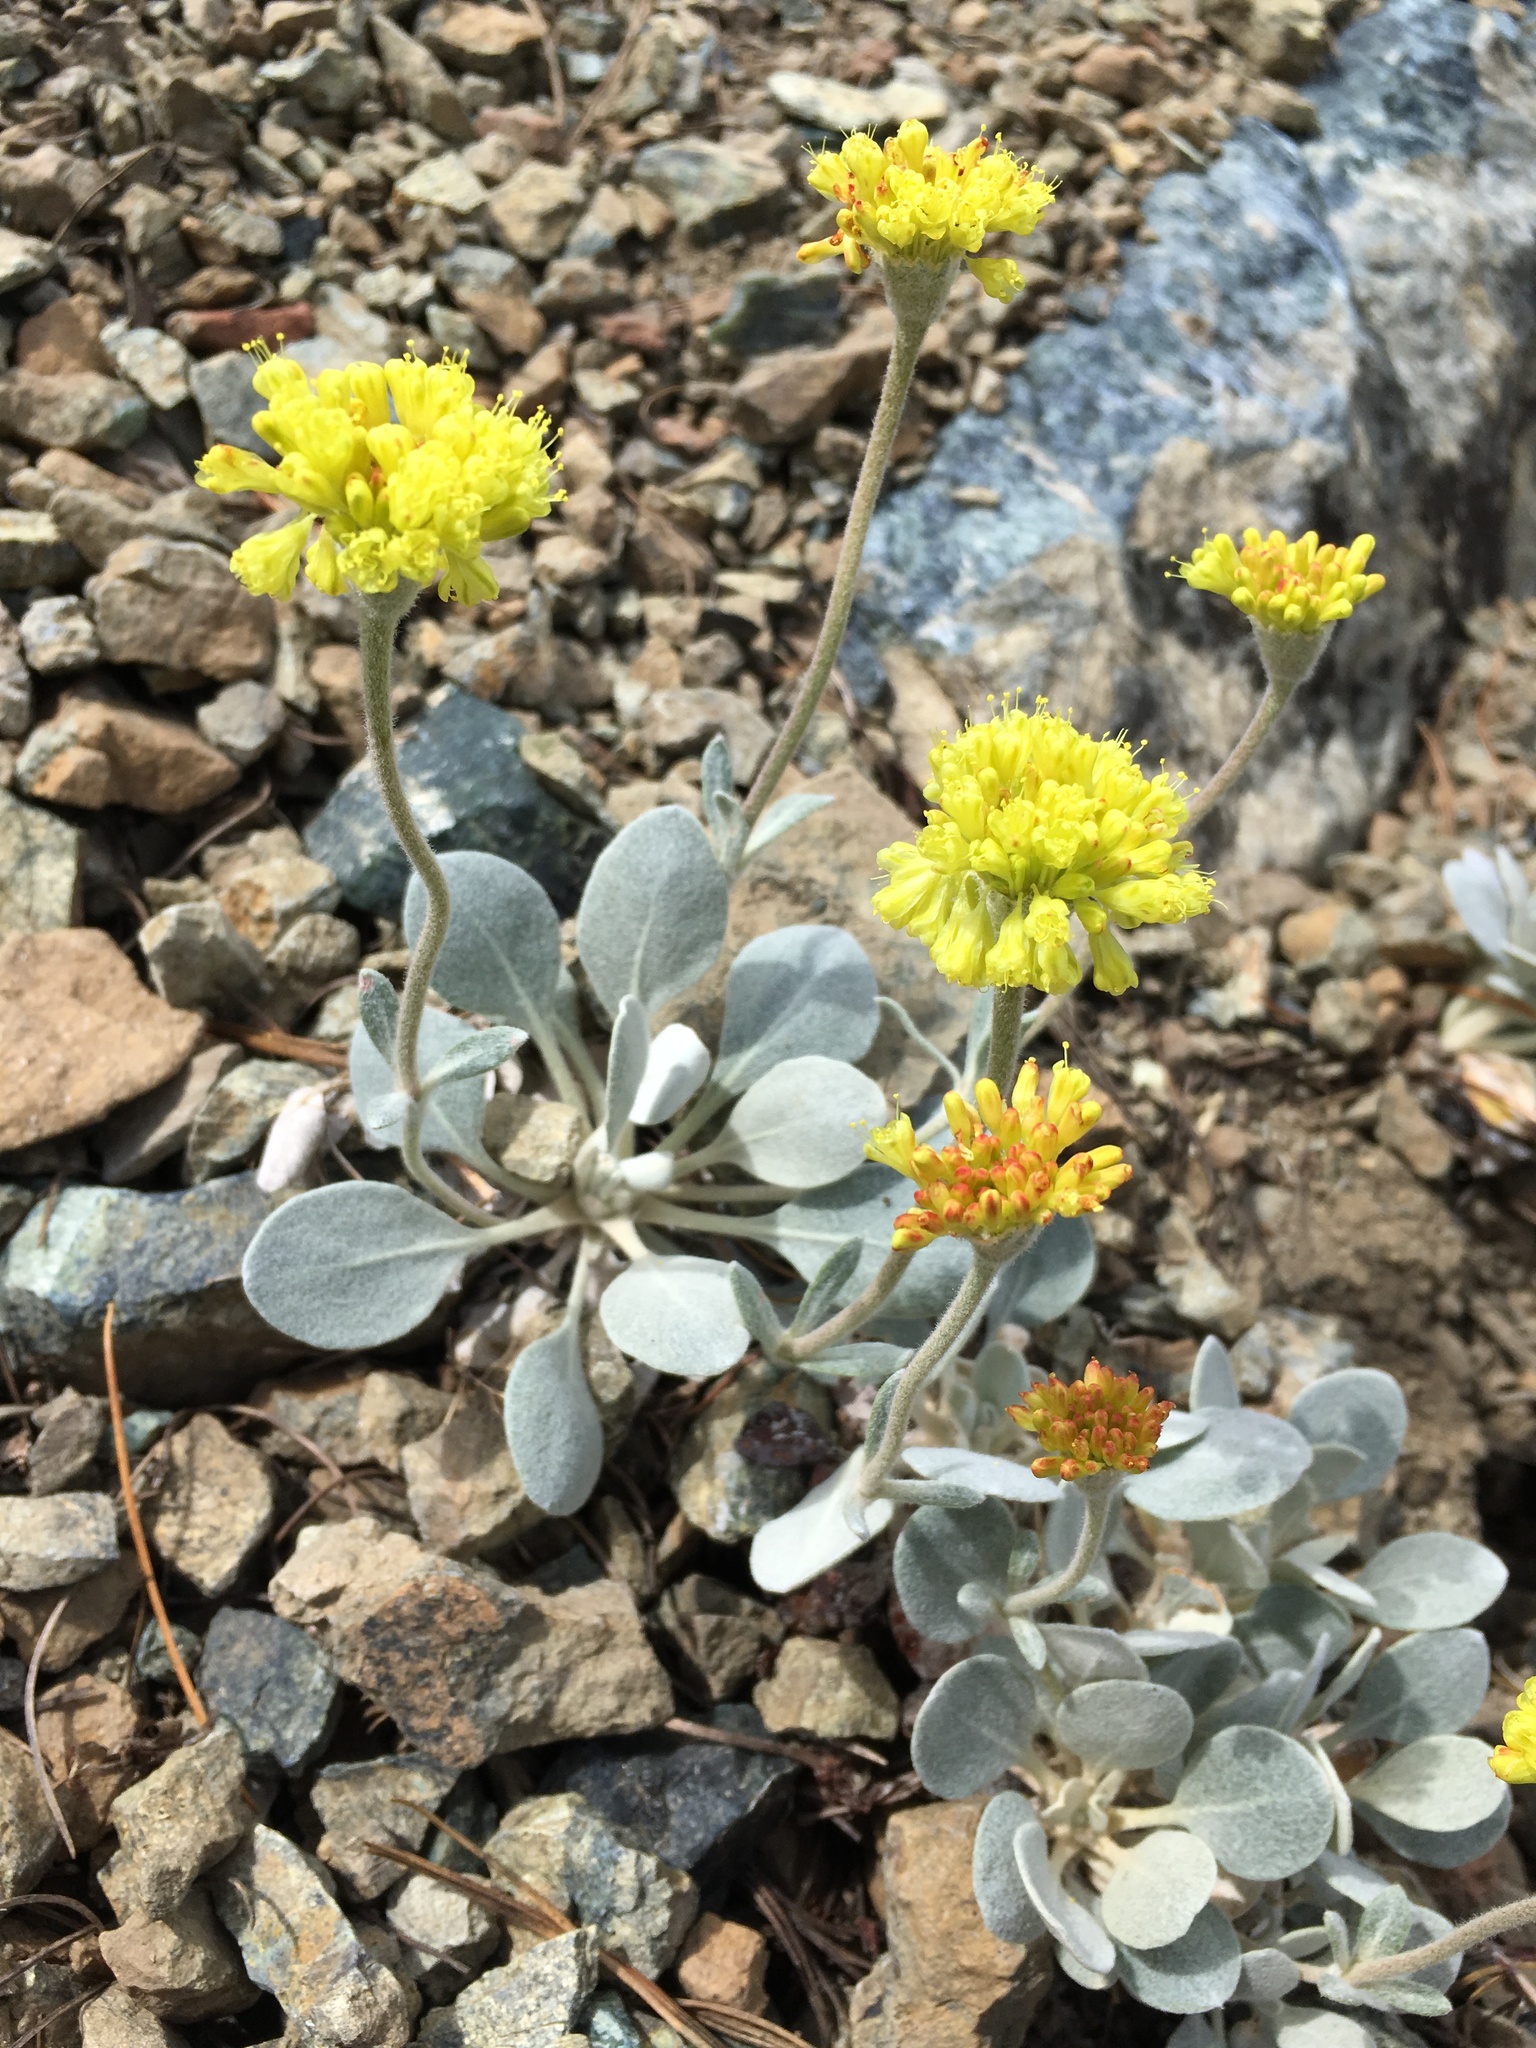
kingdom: Plantae
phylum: Tracheophyta
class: Magnoliopsida
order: Caryophyllales
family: Polygonaceae
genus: Eriogonum
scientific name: Eriogonum alpinum
